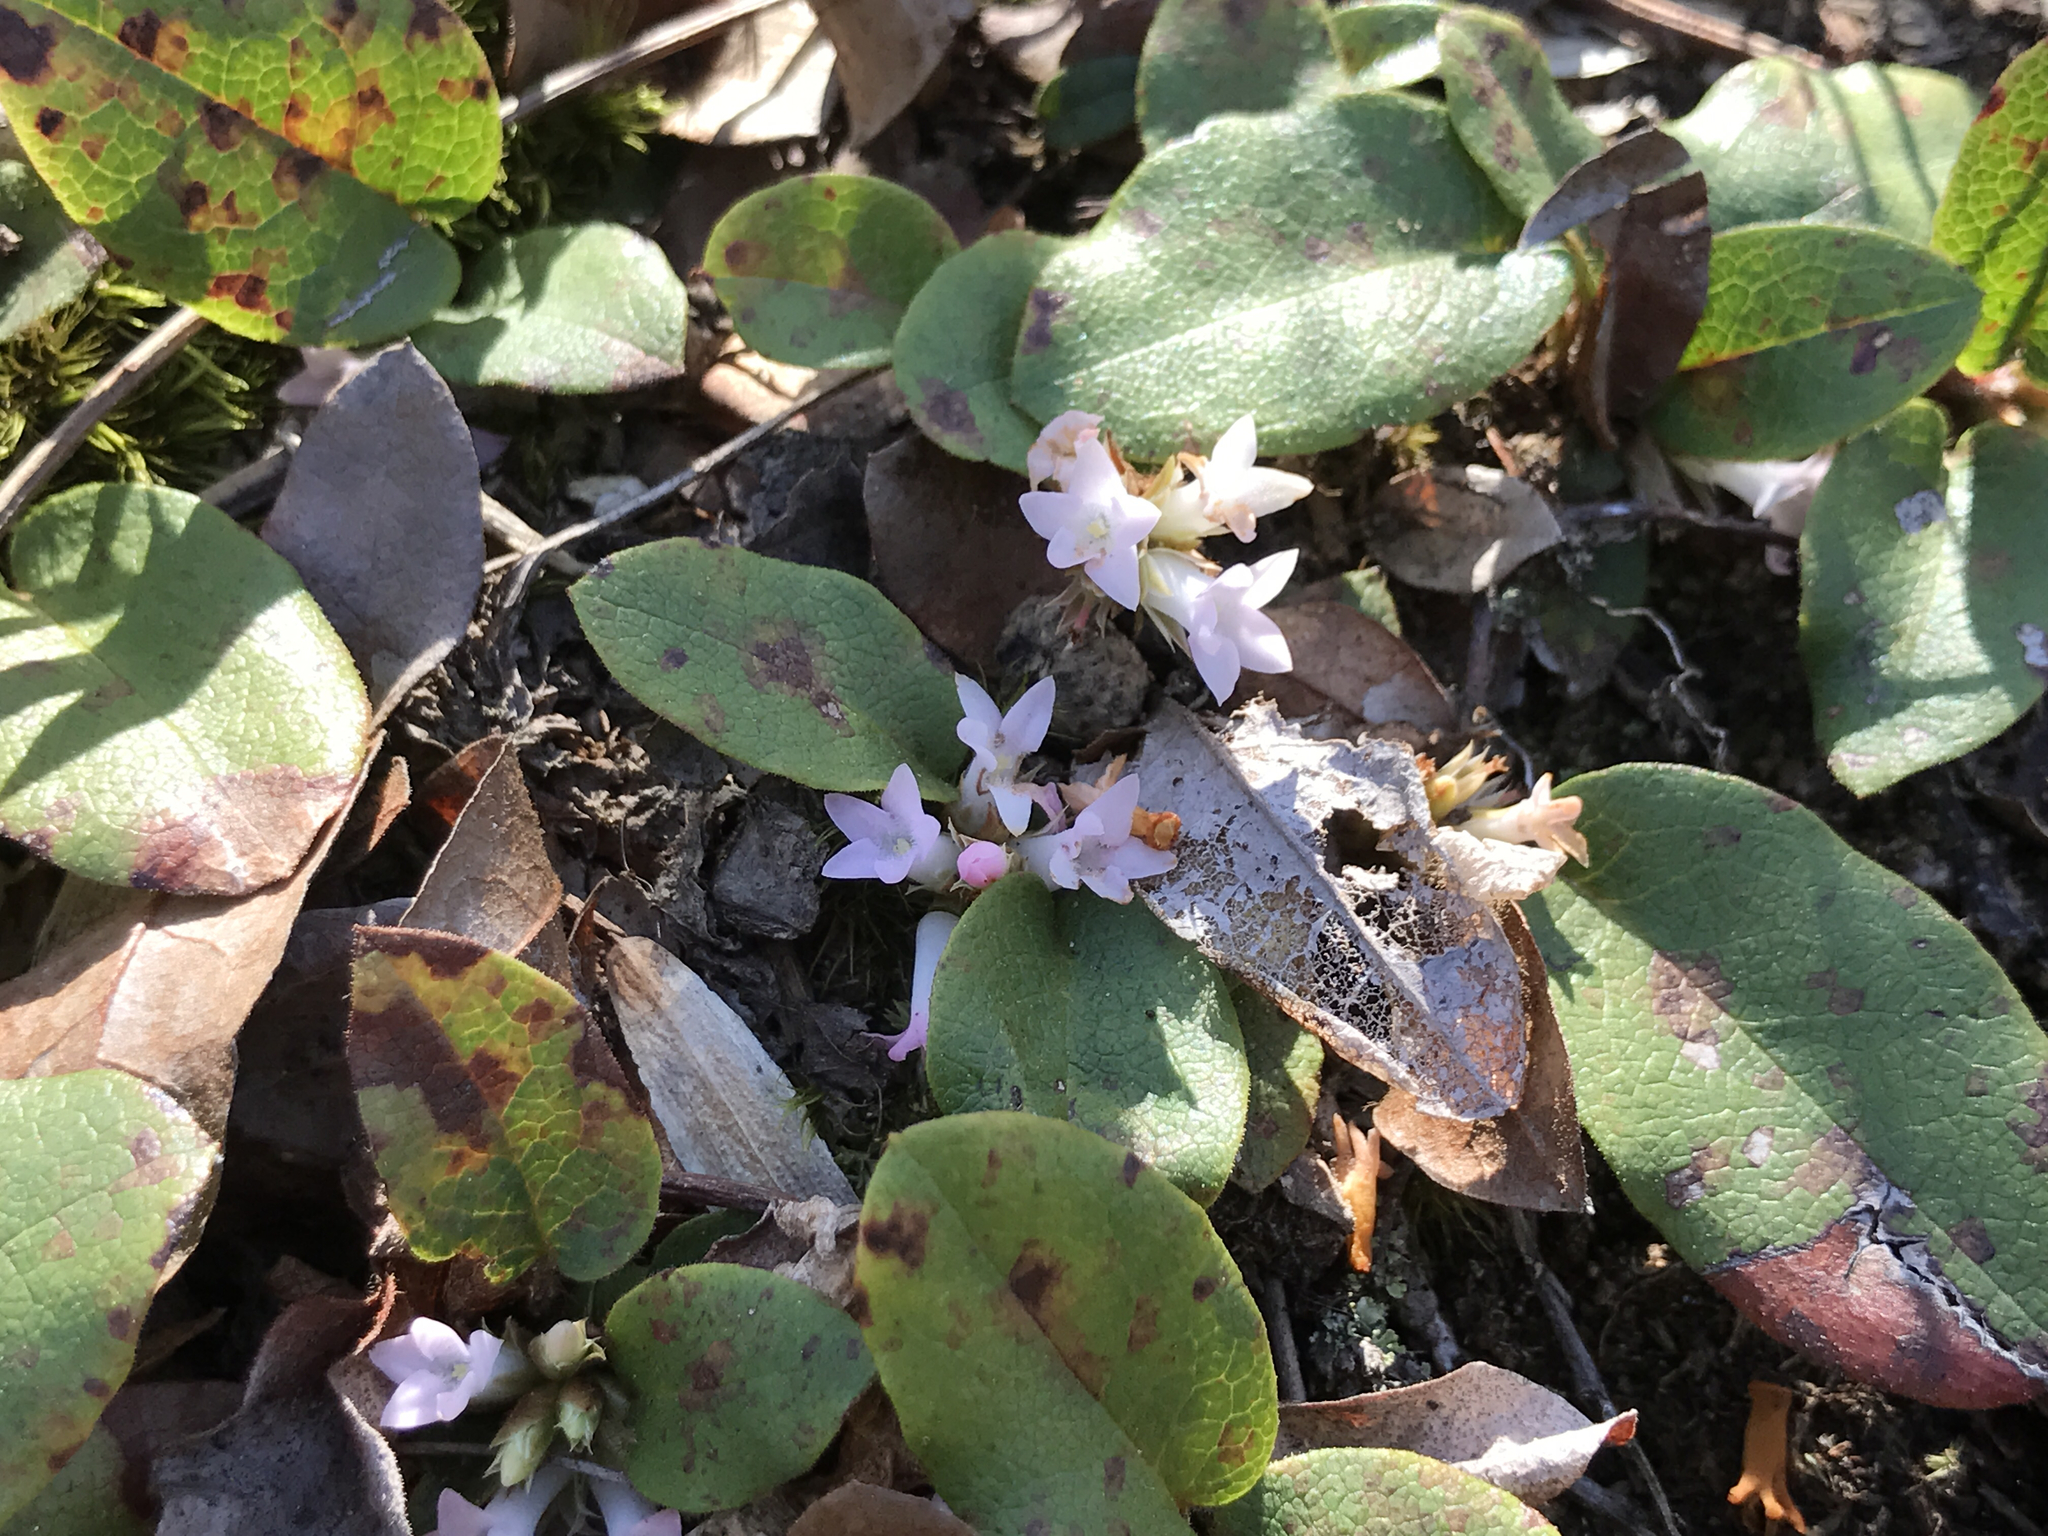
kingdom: Plantae
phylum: Tracheophyta
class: Magnoliopsida
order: Ericales
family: Ericaceae
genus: Epigaea
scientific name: Epigaea repens
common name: Gravelroot
